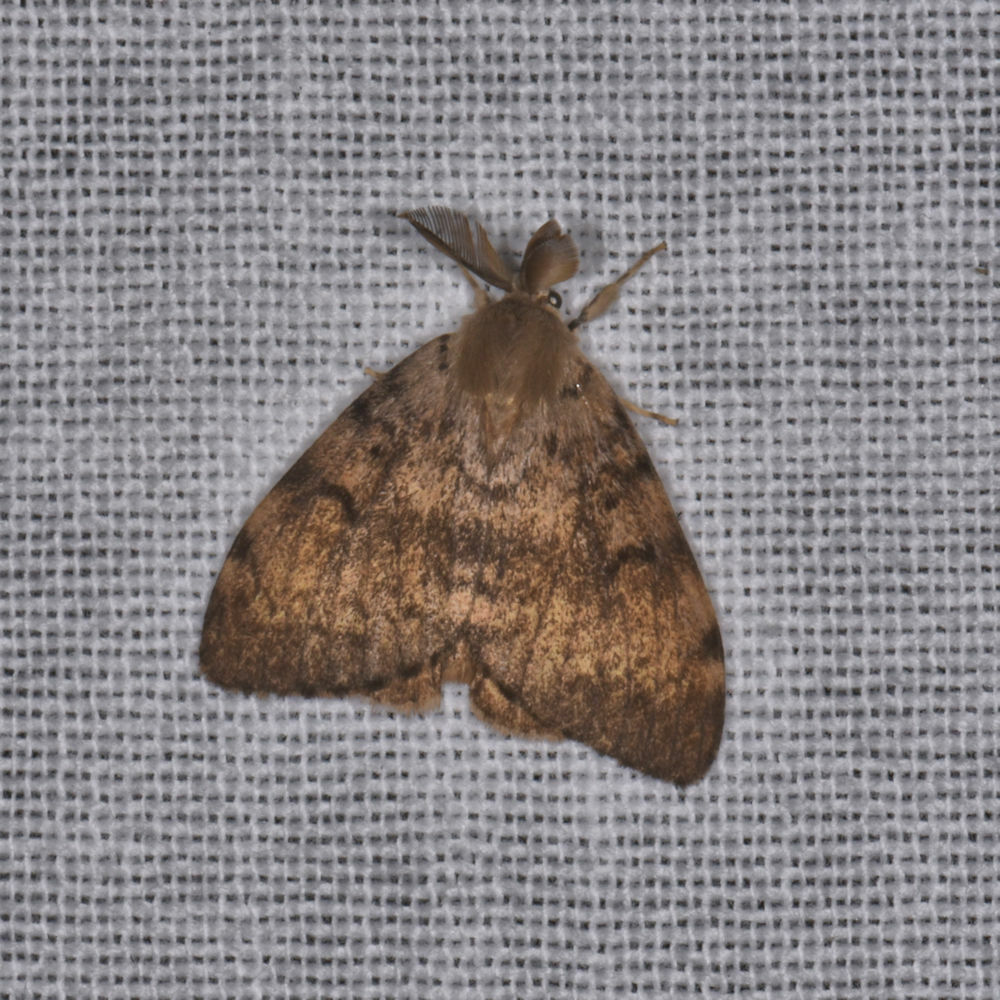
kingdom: Animalia
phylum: Arthropoda
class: Insecta
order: Lepidoptera
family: Erebidae
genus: Lymantria
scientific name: Lymantria dispar
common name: Gypsy moth
